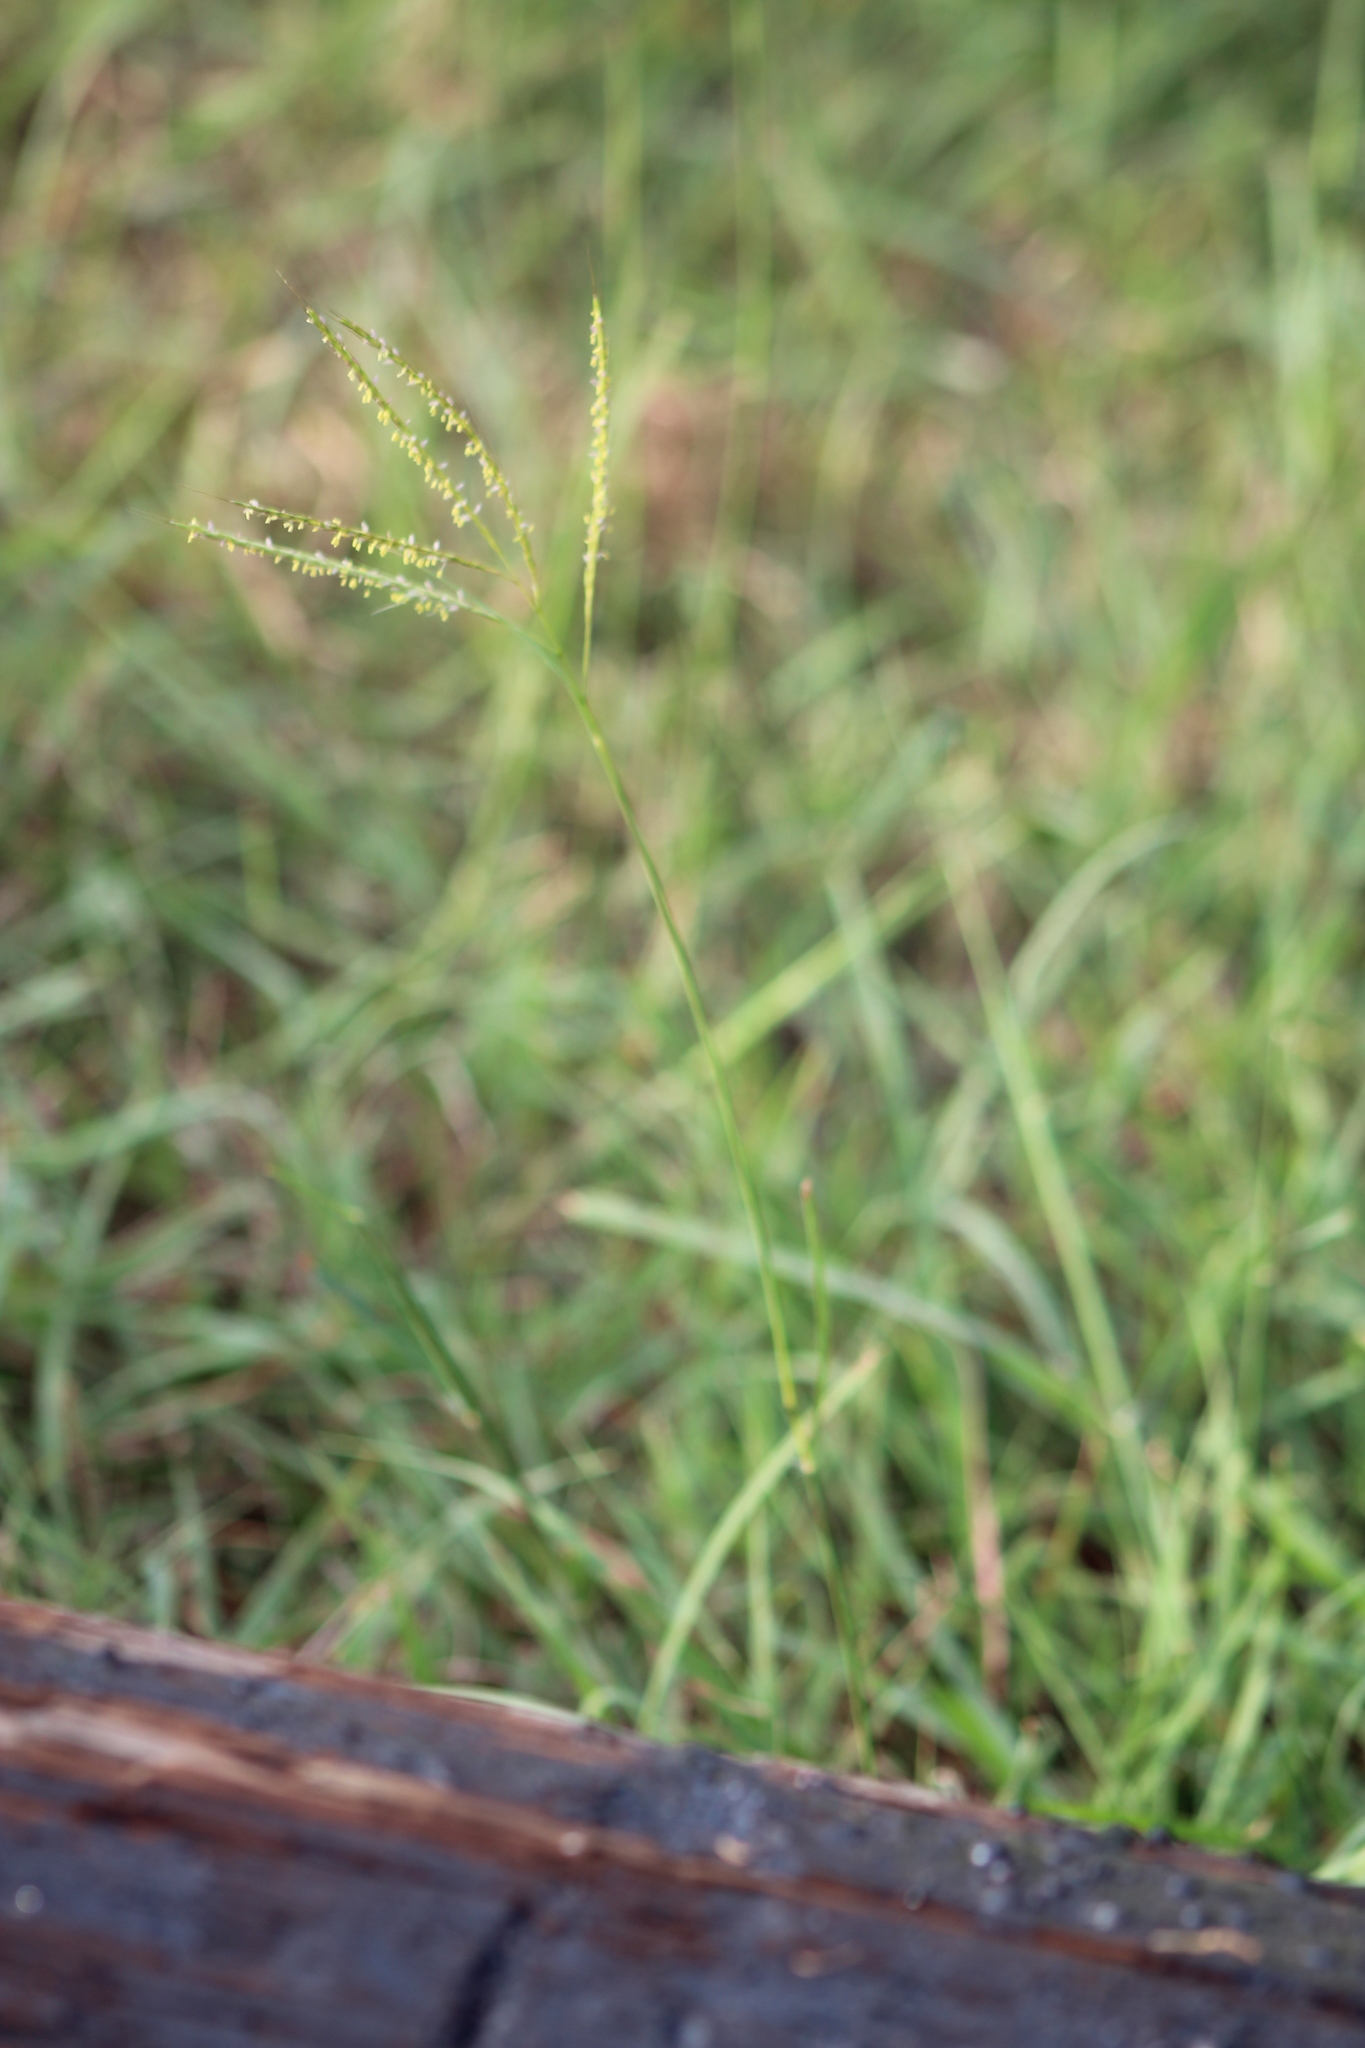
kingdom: Plantae
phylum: Tracheophyta
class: Liliopsida
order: Poales
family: Poaceae
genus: Bothriochloa
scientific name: Bothriochloa ischaemum
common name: Yellow bluestem
